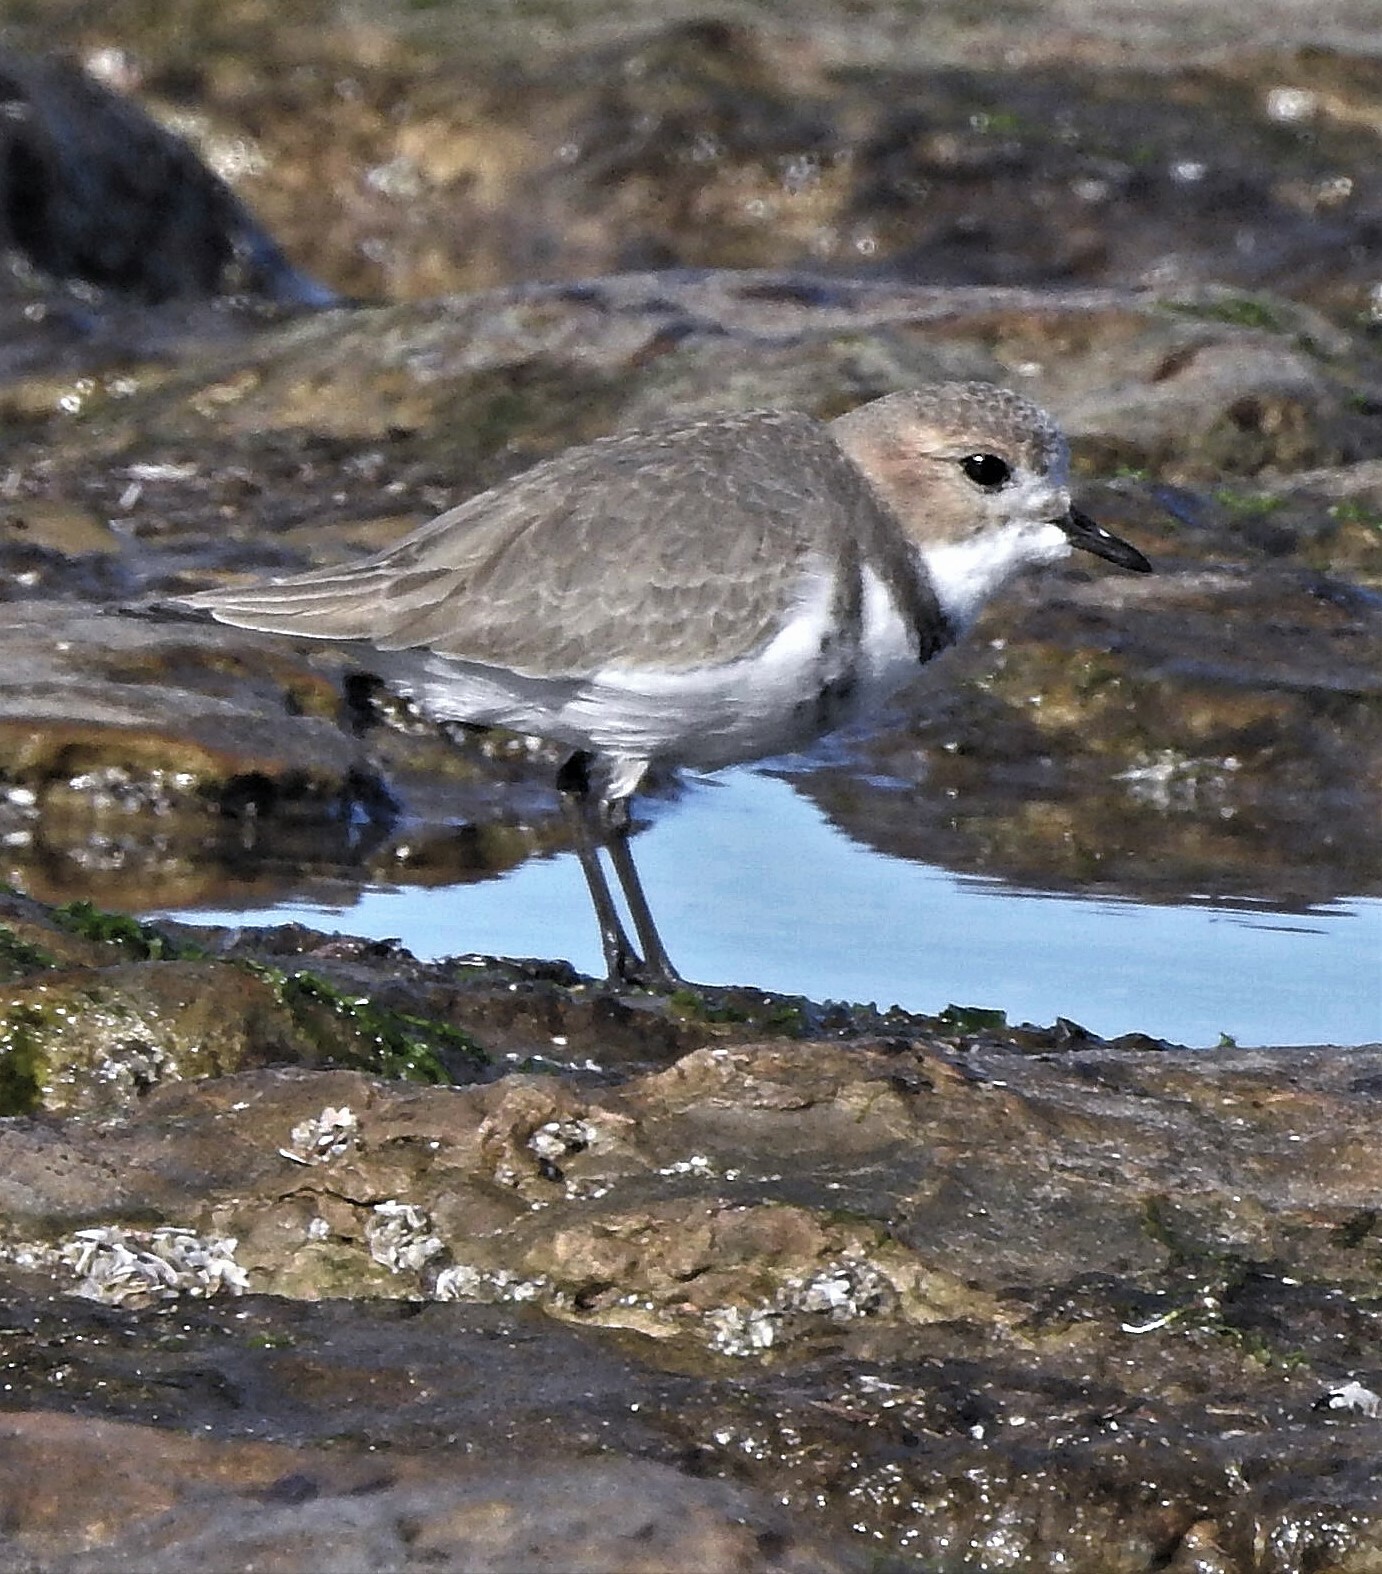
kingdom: Animalia
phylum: Chordata
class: Aves
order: Charadriiformes
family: Charadriidae
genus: Anarhynchus
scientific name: Anarhynchus
